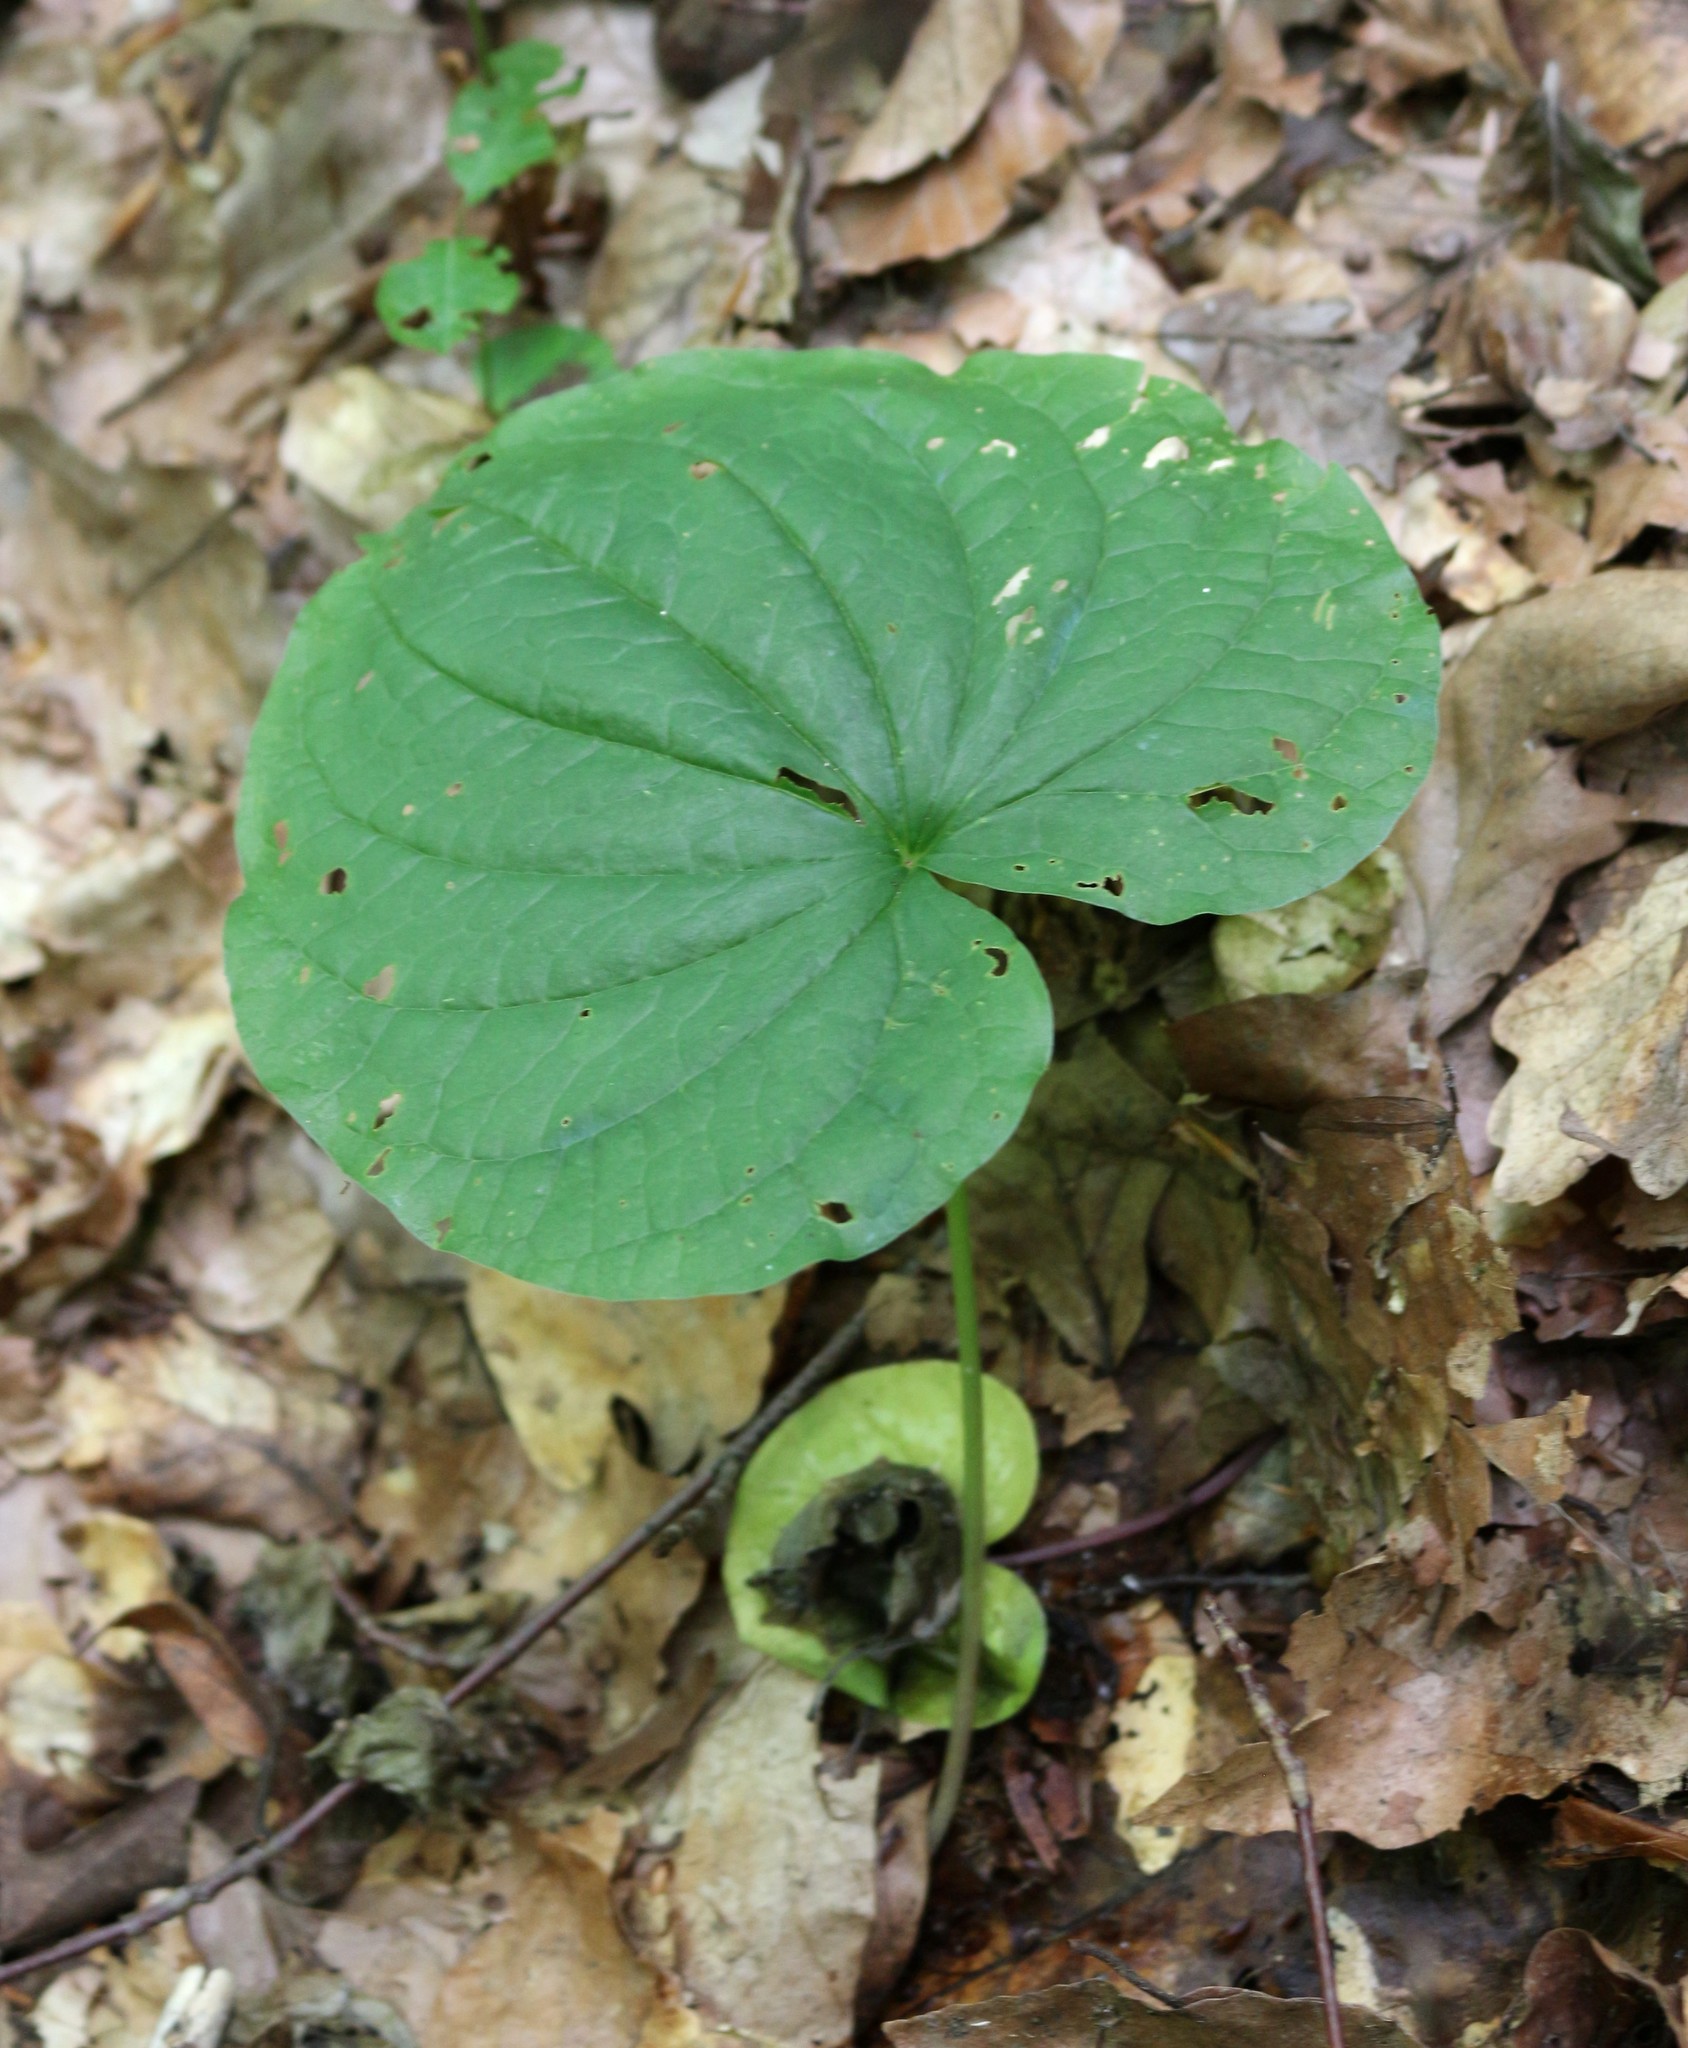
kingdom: Plantae
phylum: Tracheophyta
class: Liliopsida
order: Dioscoreales
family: Dioscoreaceae
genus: Dioscorea
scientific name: Dioscorea communis
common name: Black-bindweed
